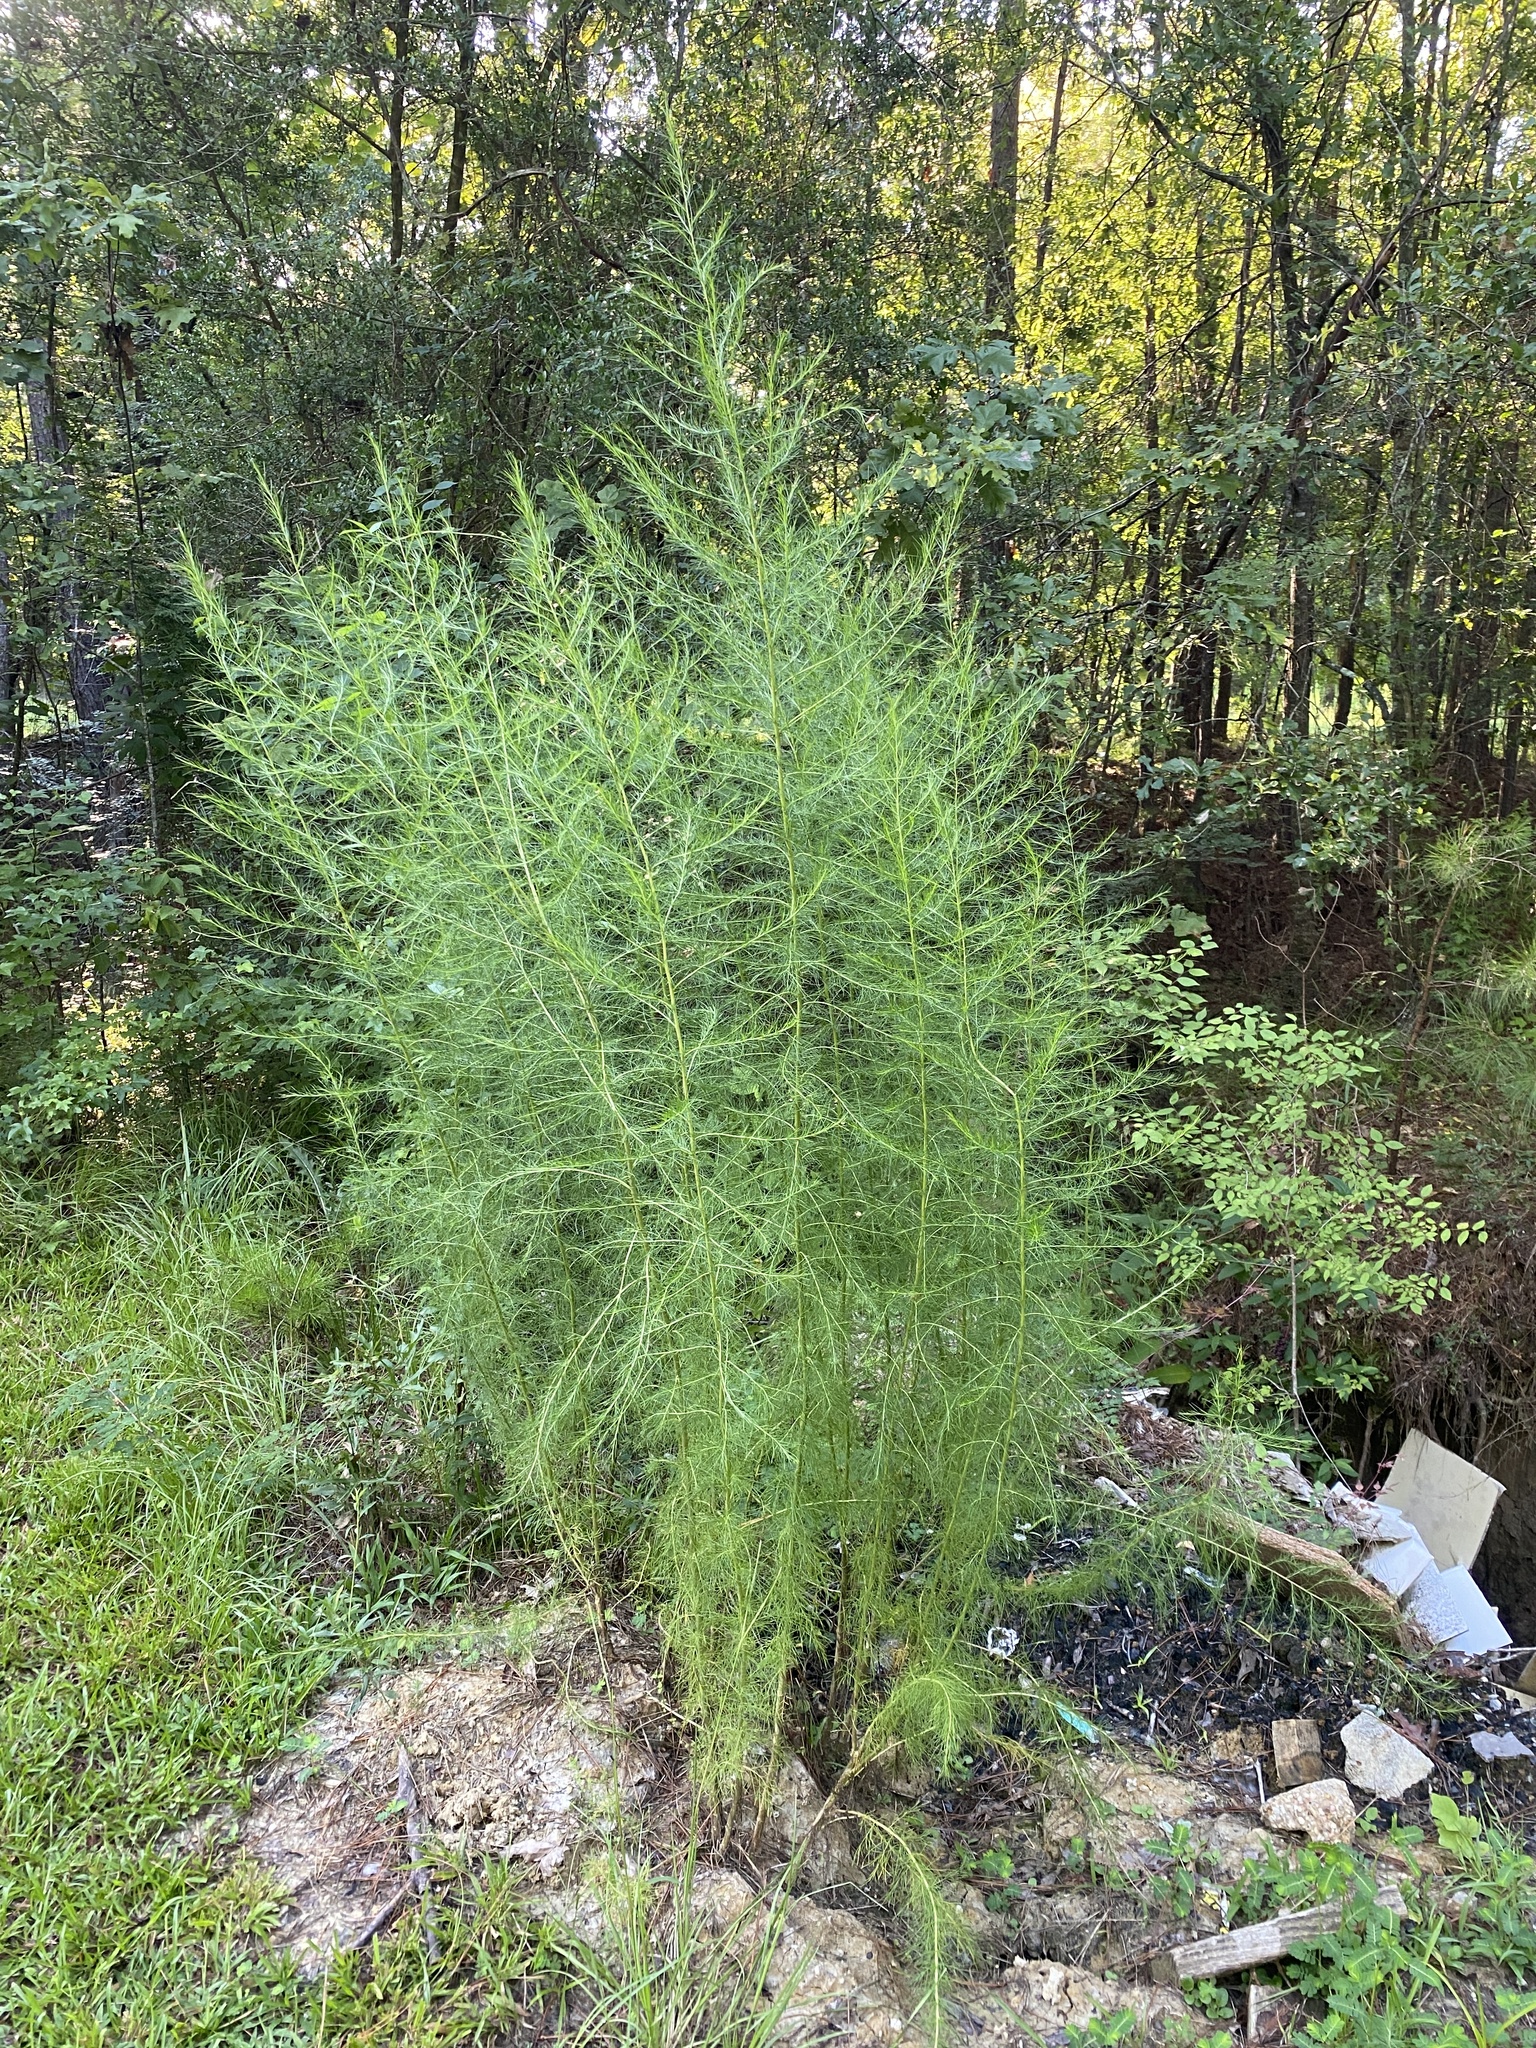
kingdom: Plantae
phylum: Tracheophyta
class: Magnoliopsida
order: Asterales
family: Asteraceae
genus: Eupatorium
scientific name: Eupatorium capillifolium
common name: Dog-fennel
